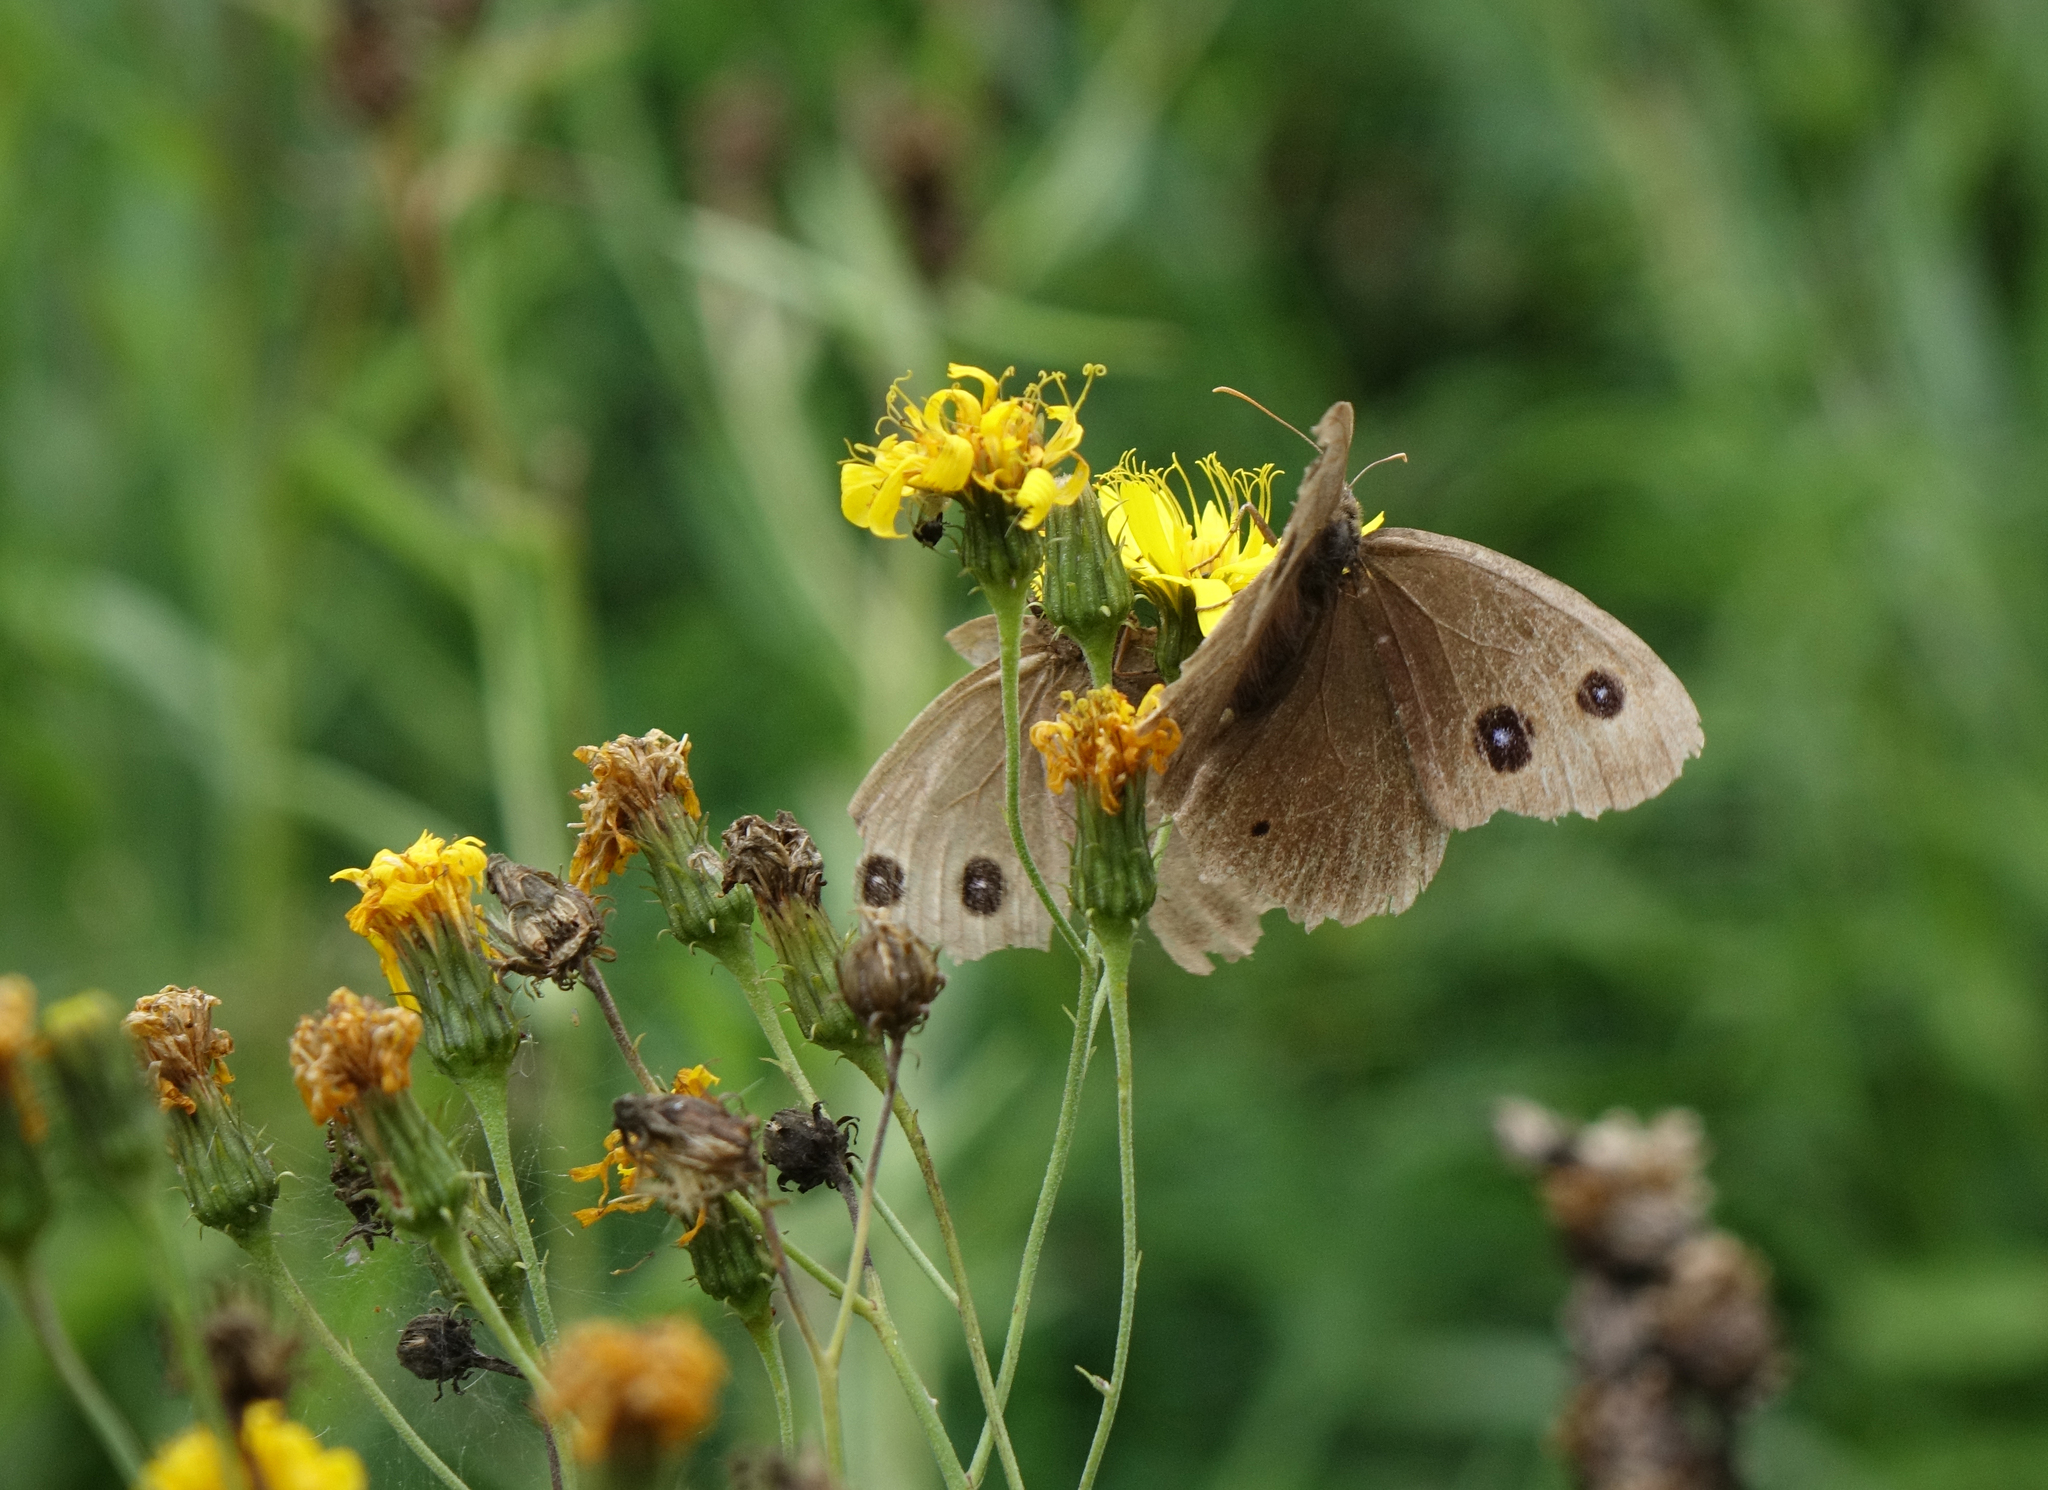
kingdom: Plantae
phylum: Tracheophyta
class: Magnoliopsida
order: Asterales
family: Asteraceae
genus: Hieracium
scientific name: Hieracium umbellatum
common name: Northern hawkweed
